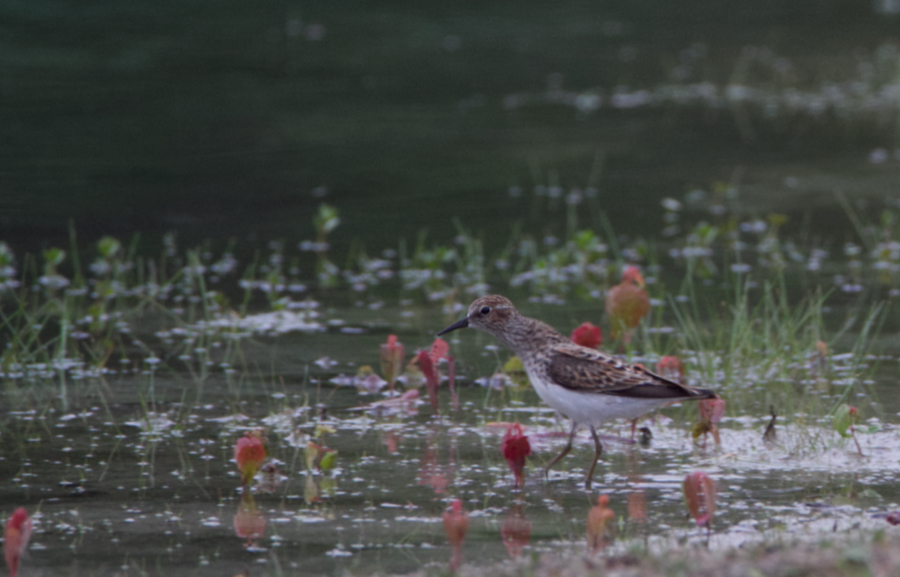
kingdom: Animalia
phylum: Chordata
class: Aves
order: Charadriiformes
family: Scolopacidae
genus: Calidris
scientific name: Calidris minutilla
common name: Least sandpiper
